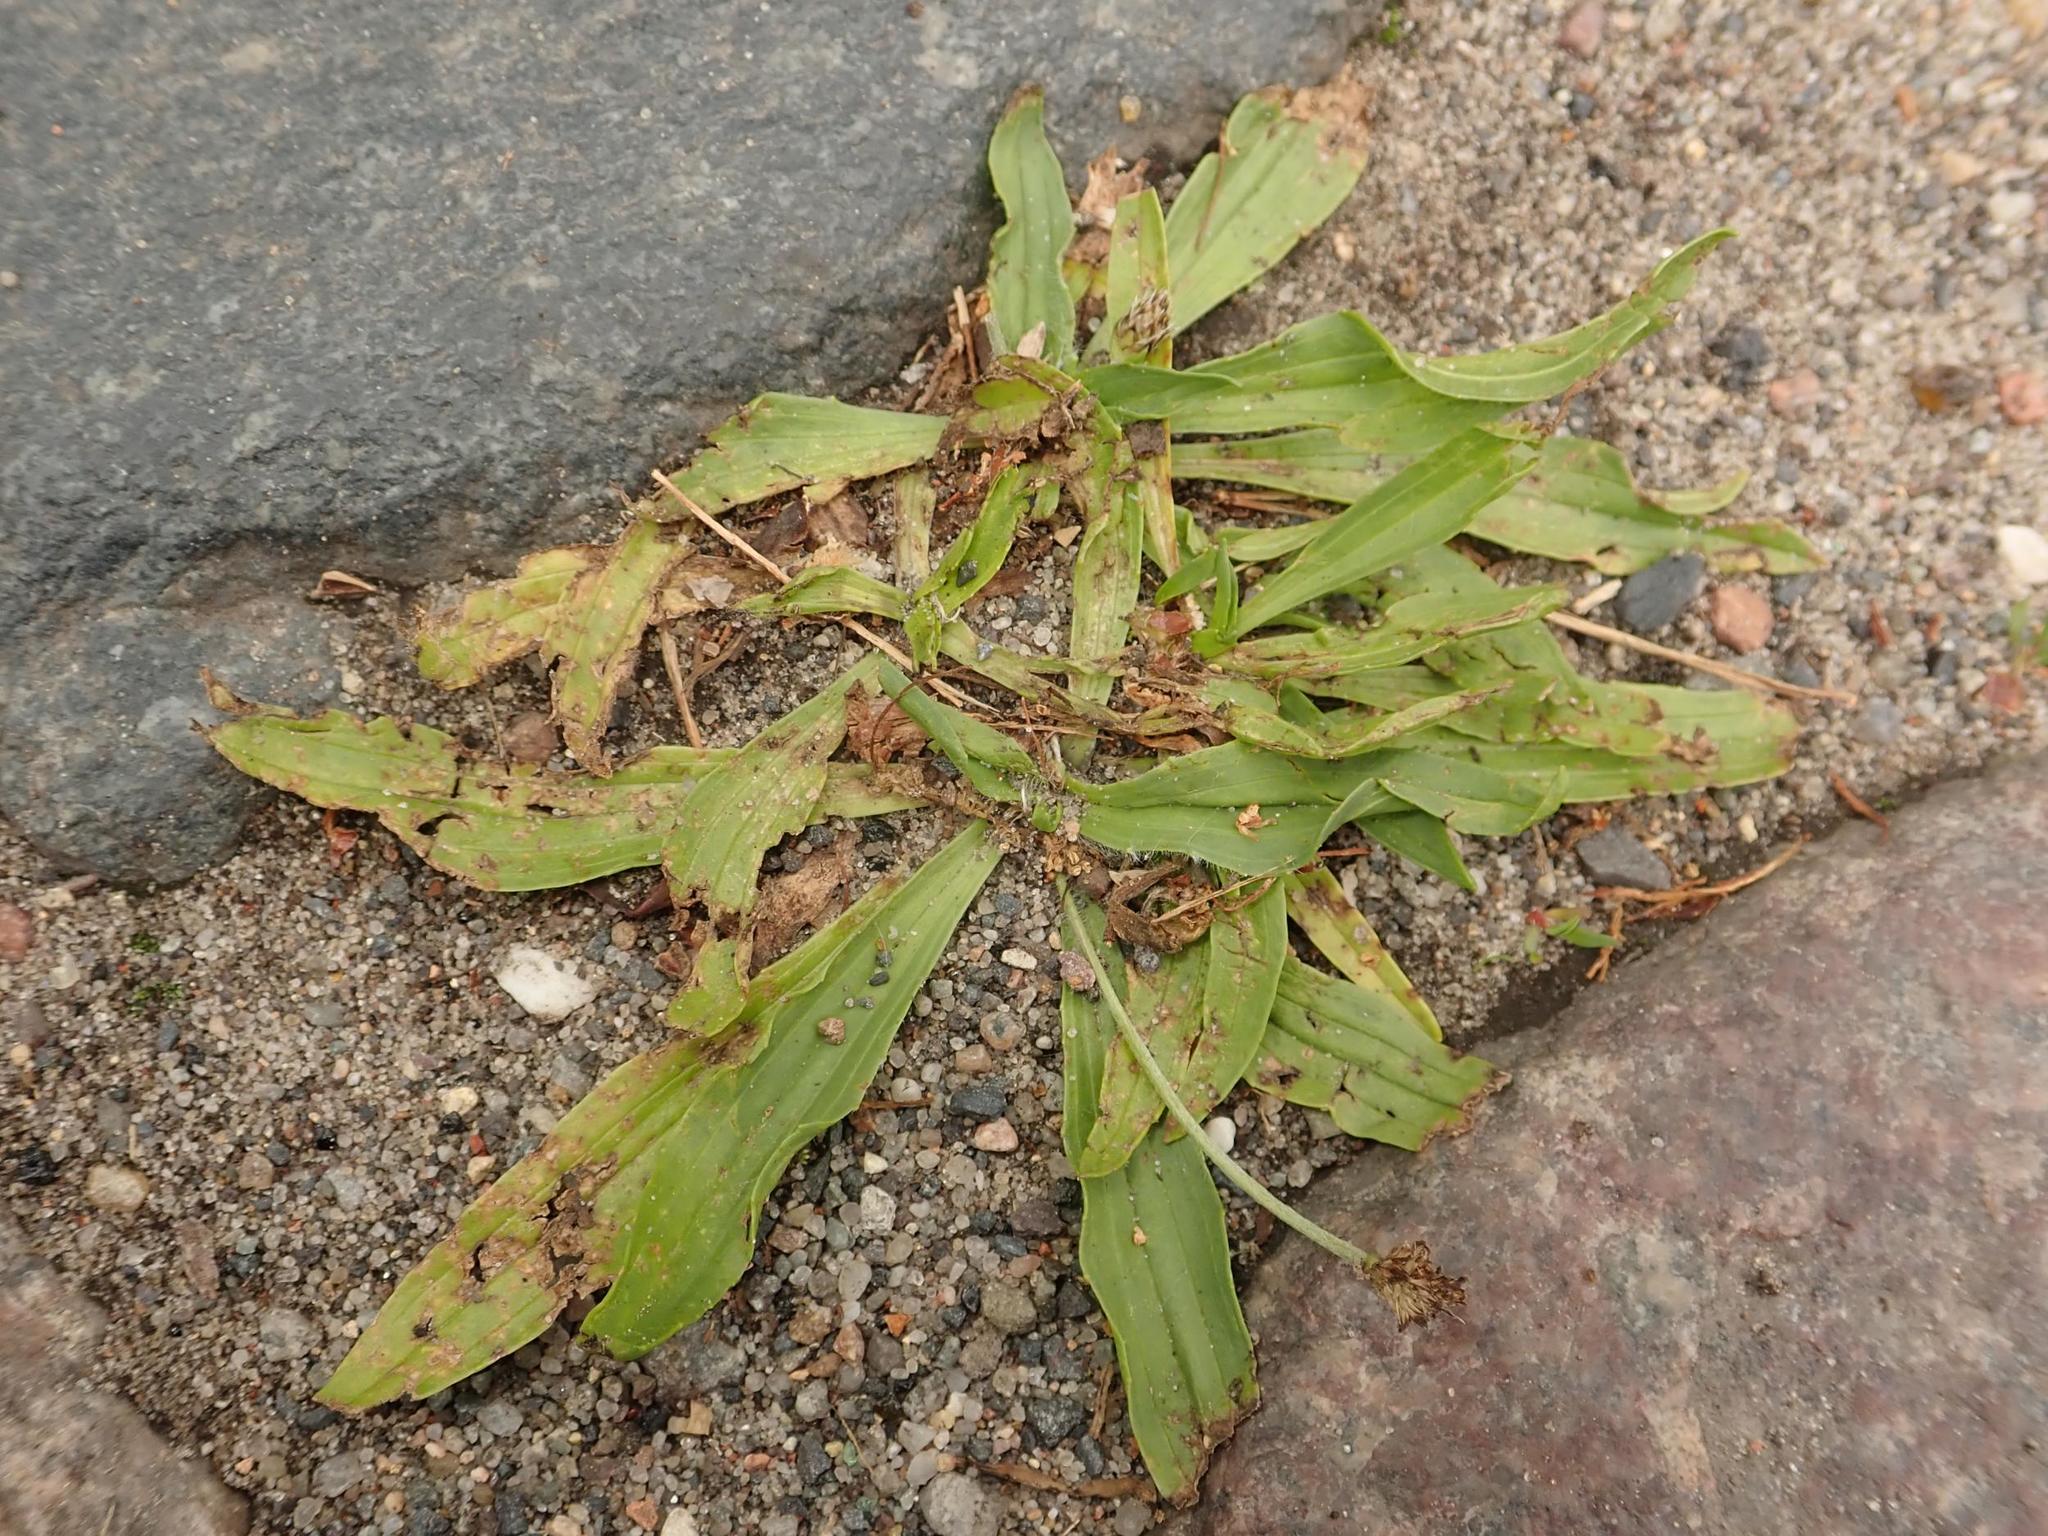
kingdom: Plantae
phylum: Tracheophyta
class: Magnoliopsida
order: Lamiales
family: Plantaginaceae
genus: Plantago
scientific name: Plantago lanceolata
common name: Ribwort plantain
